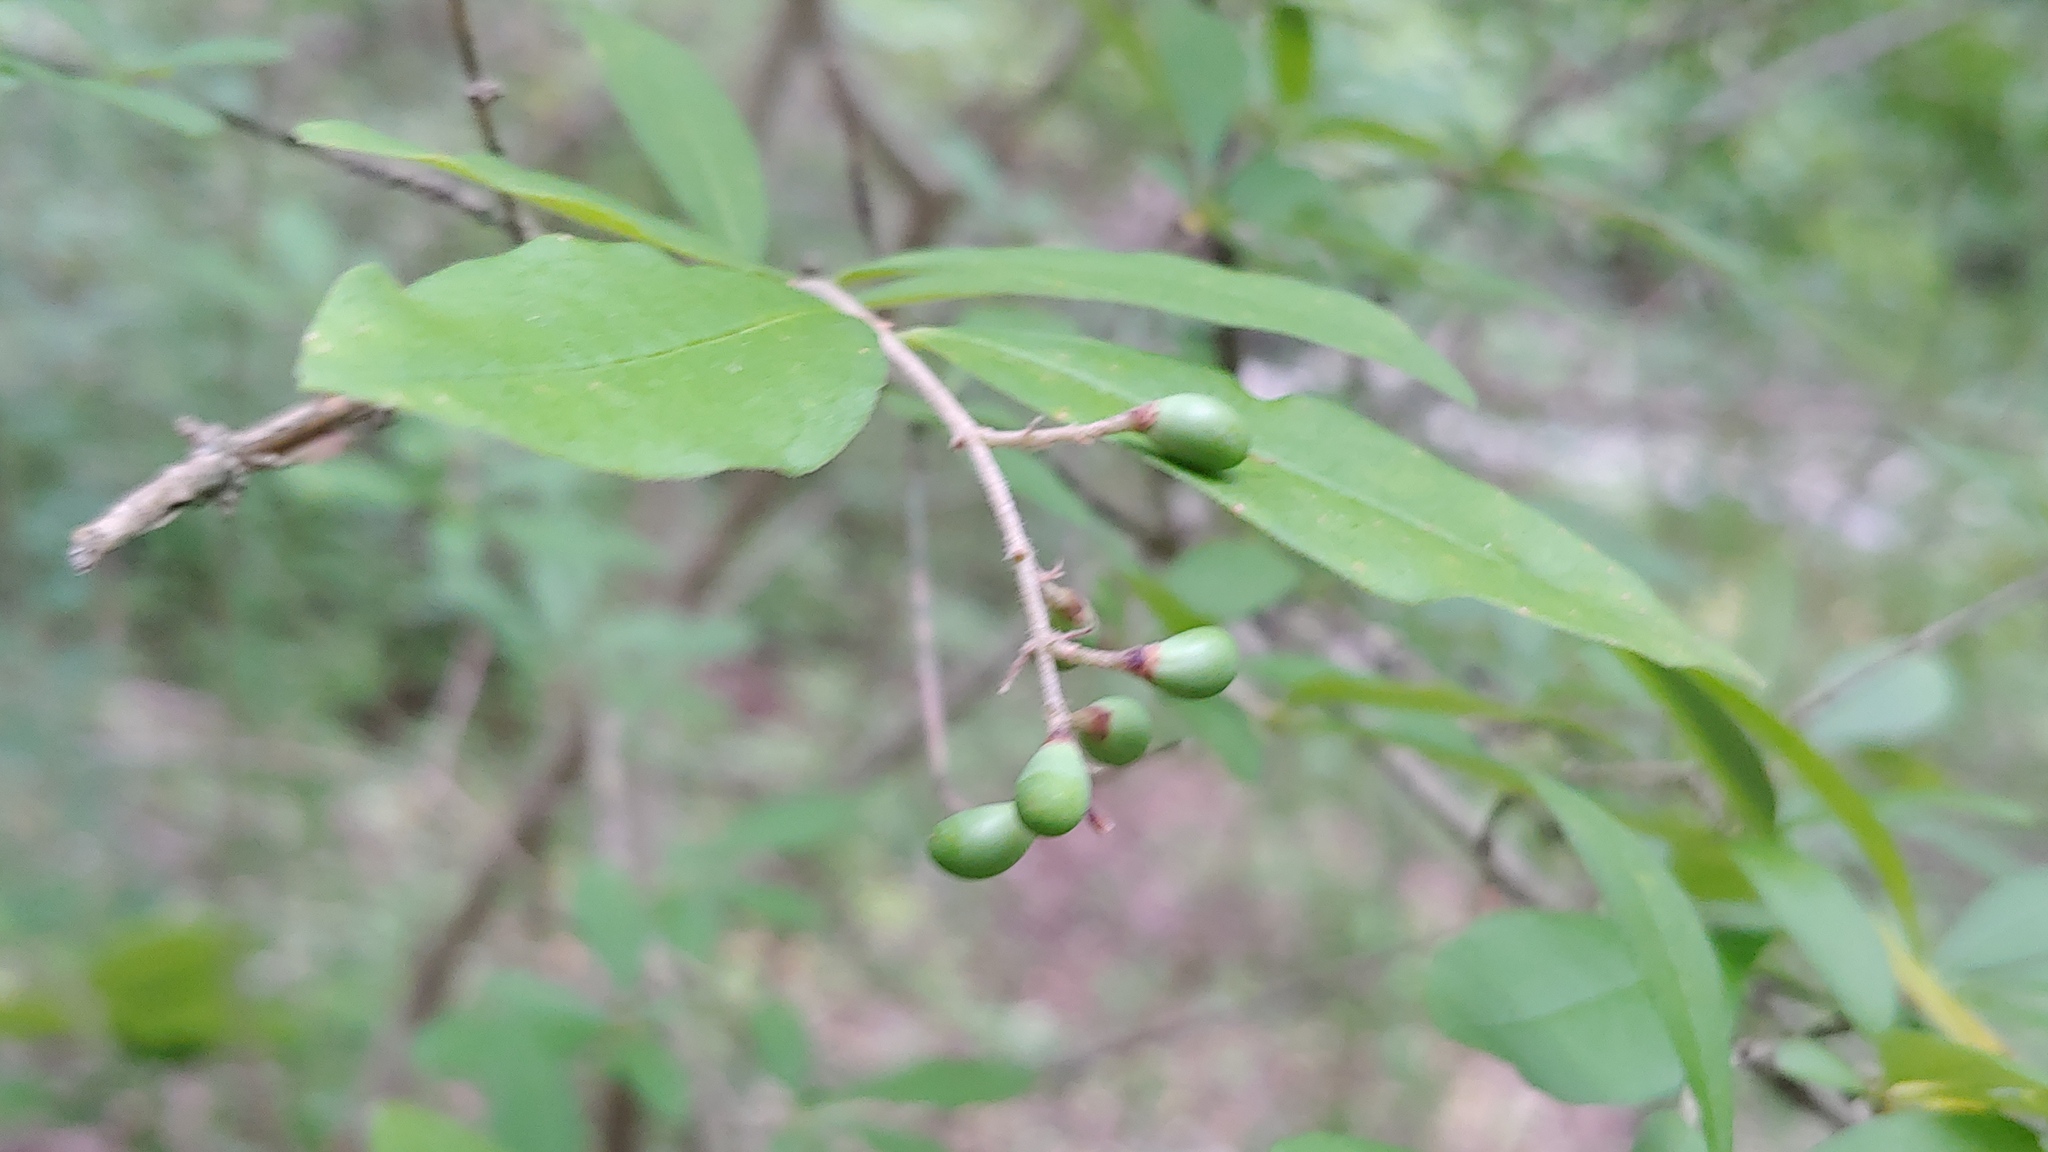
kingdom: Plantae
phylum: Tracheophyta
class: Magnoliopsida
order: Lamiales
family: Oleaceae
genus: Ligustrum
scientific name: Ligustrum obtusifolium
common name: Border privet
